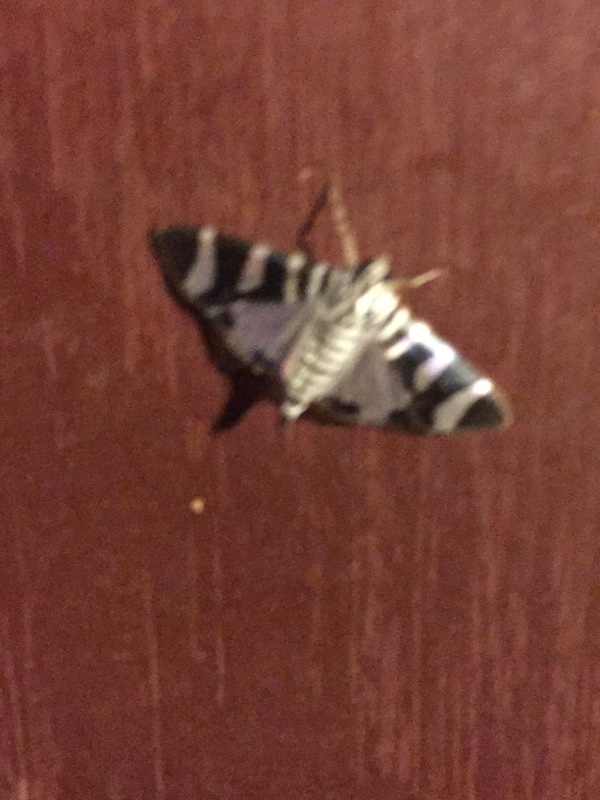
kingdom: Animalia
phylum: Arthropoda
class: Insecta
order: Lepidoptera
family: Crambidae
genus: Lypotigris
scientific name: Lypotigris reginalis
